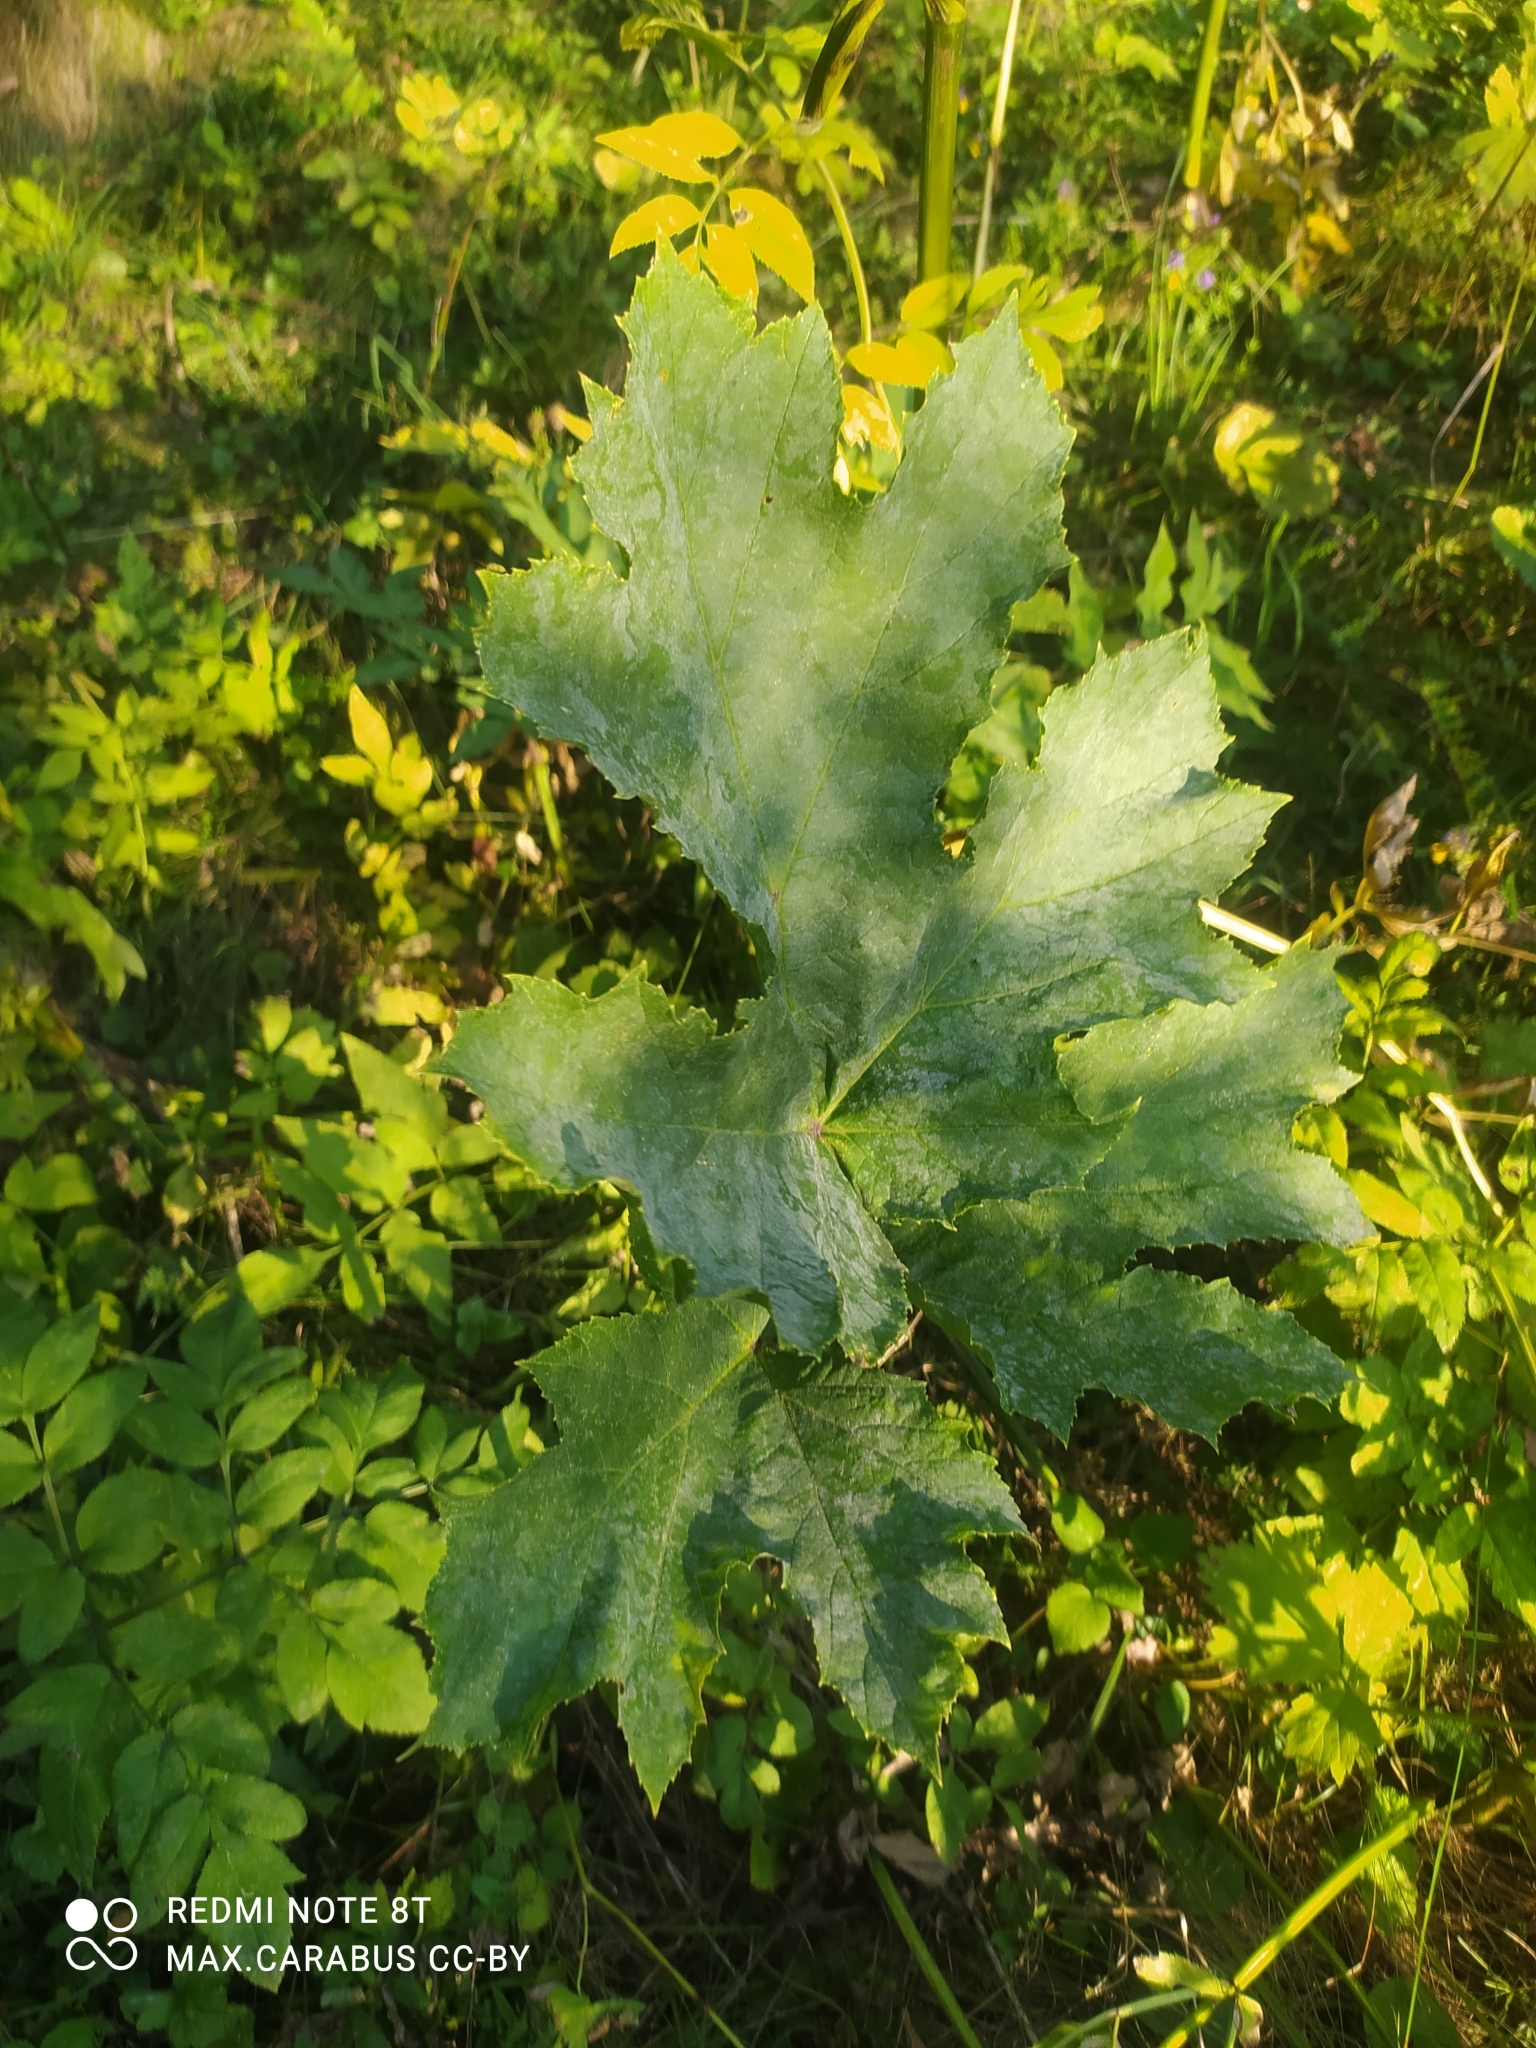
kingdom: Plantae
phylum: Tracheophyta
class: Magnoliopsida
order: Apiales
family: Apiaceae
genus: Heracleum
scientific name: Heracleum sosnowskyi
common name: Sosnowsky's hogweed
